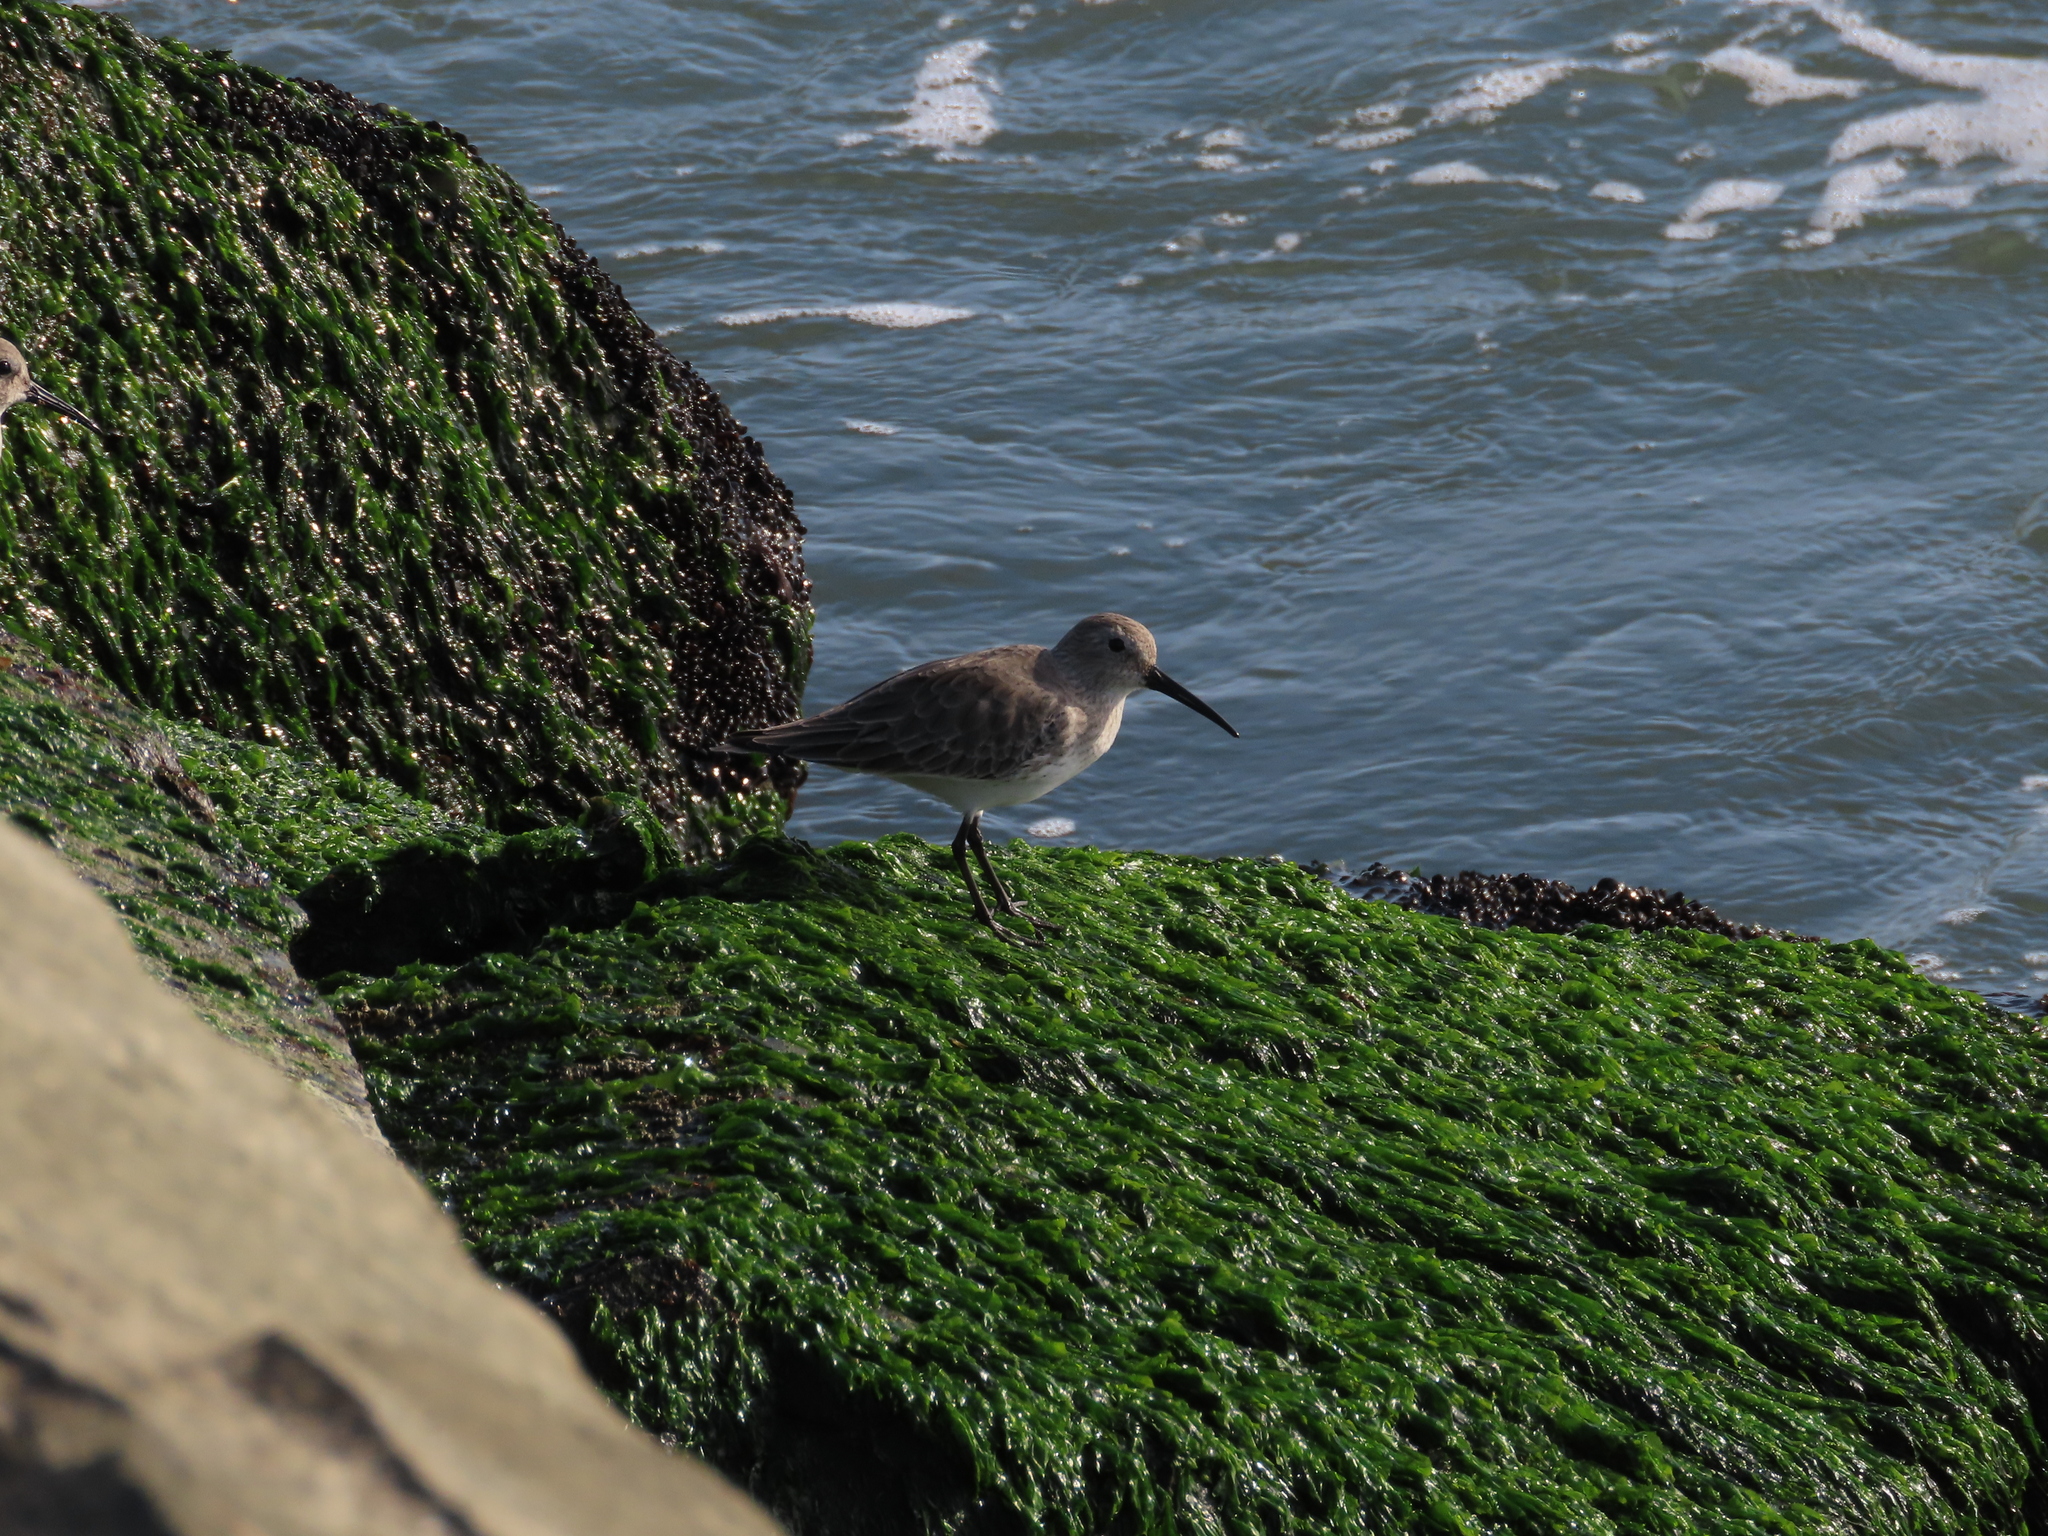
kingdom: Animalia
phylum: Chordata
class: Aves
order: Charadriiformes
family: Scolopacidae
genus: Calidris
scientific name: Calidris alpina
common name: Dunlin
